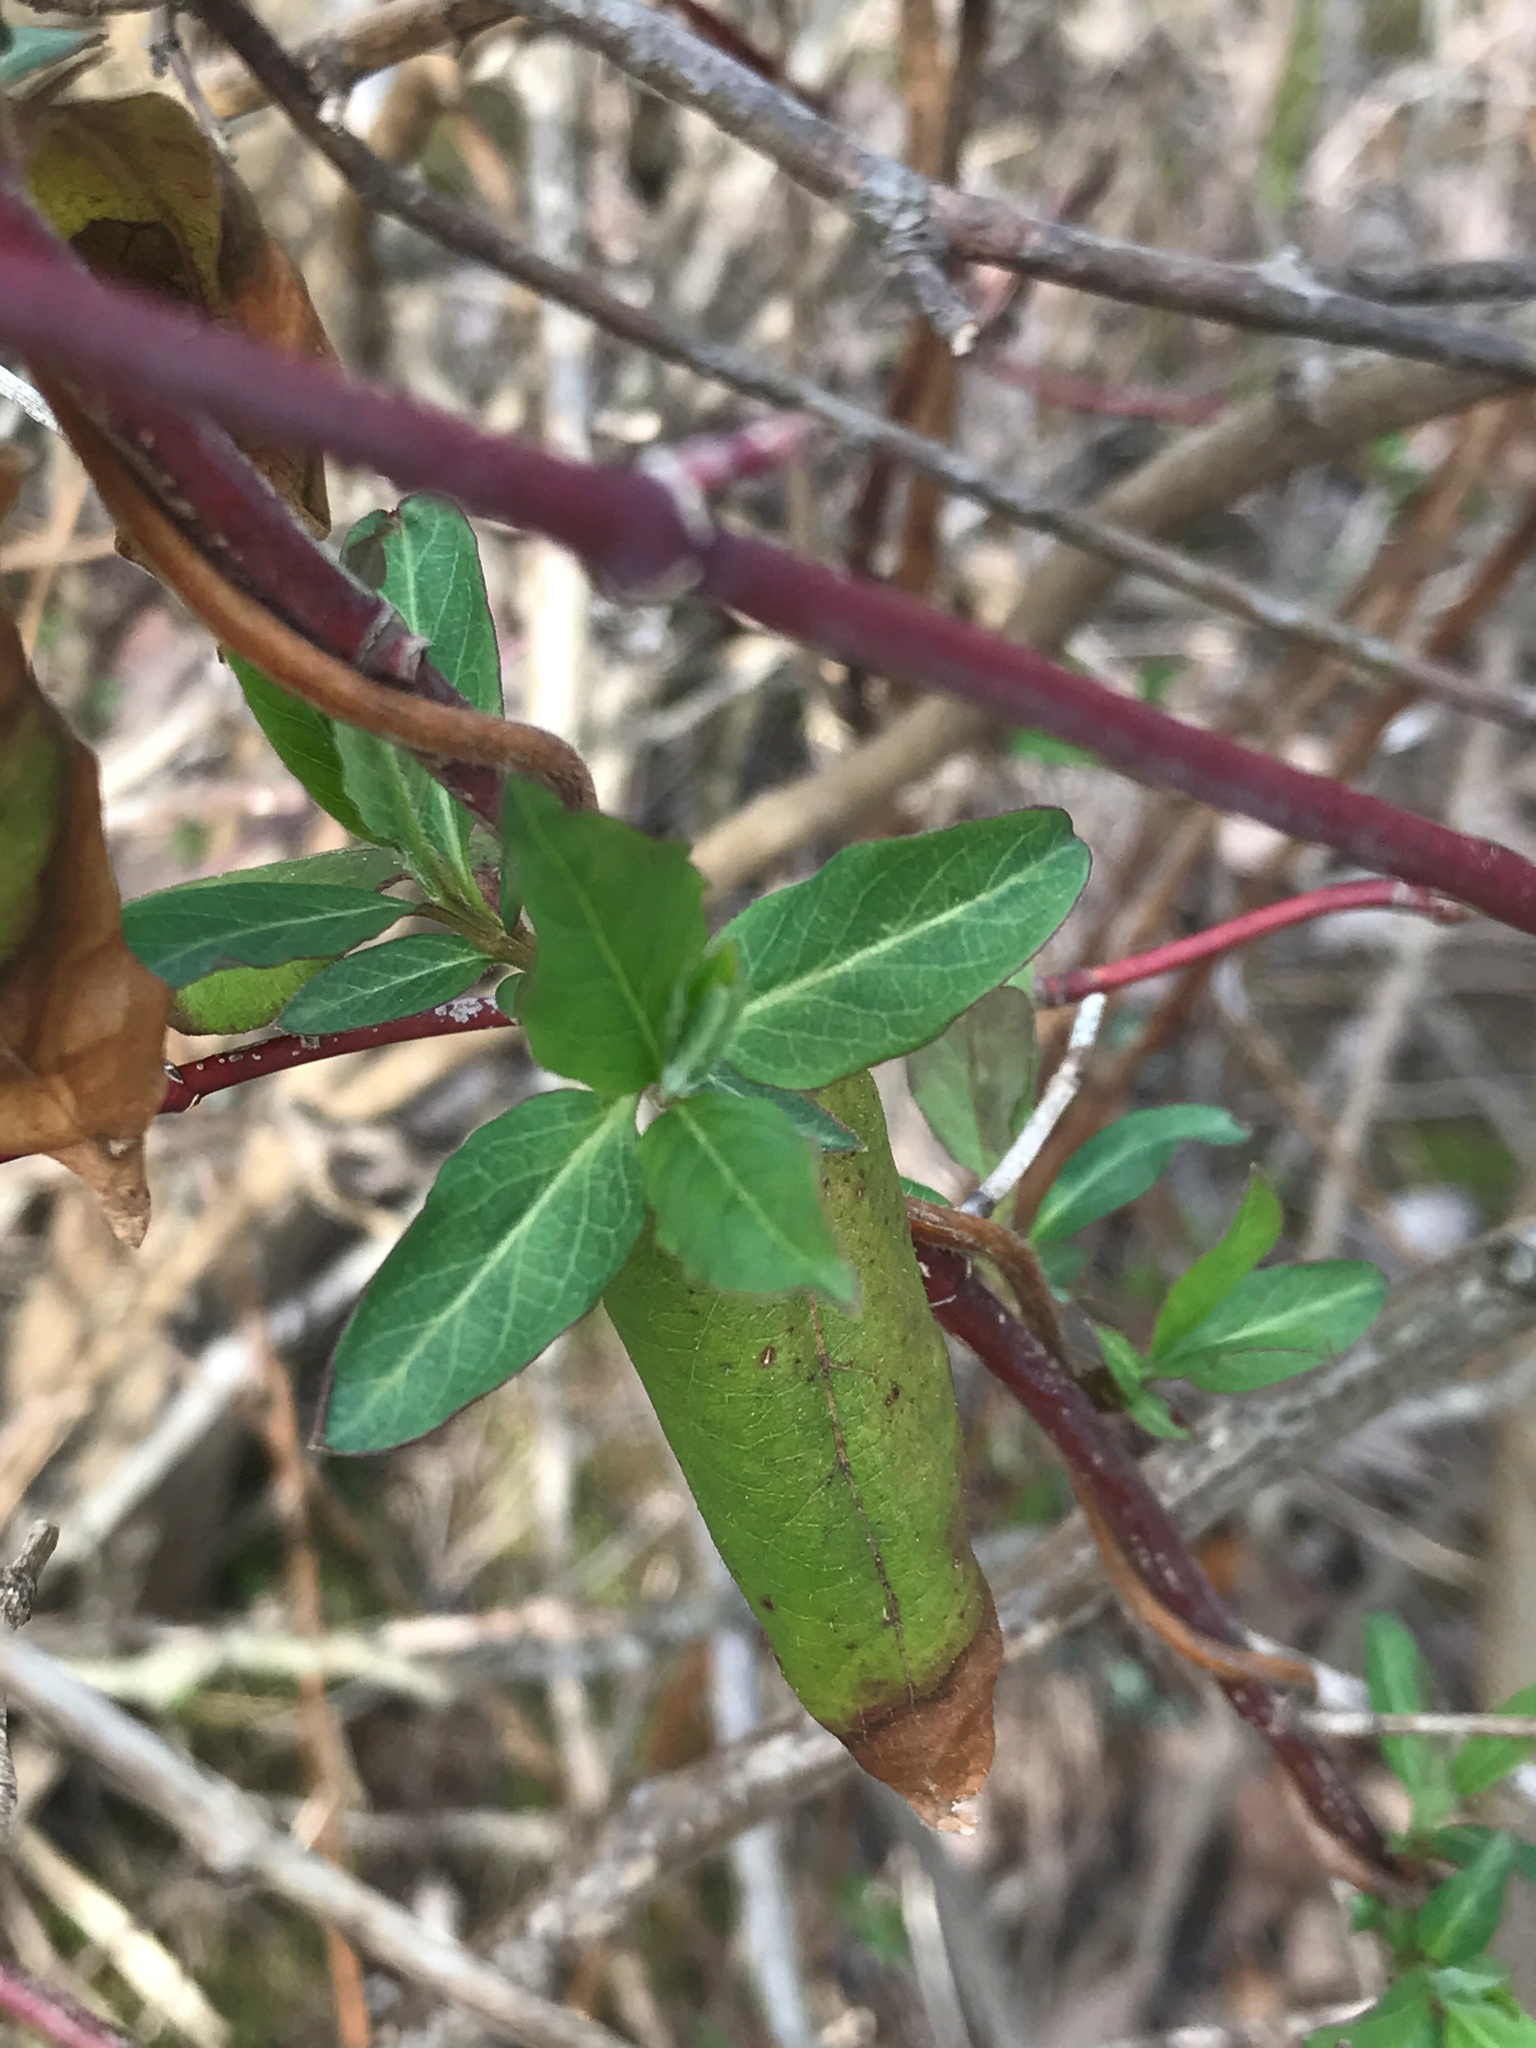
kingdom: Plantae
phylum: Tracheophyta
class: Magnoliopsida
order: Dipsacales
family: Caprifoliaceae
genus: Lonicera
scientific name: Lonicera japonica
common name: Japanese honeysuckle
